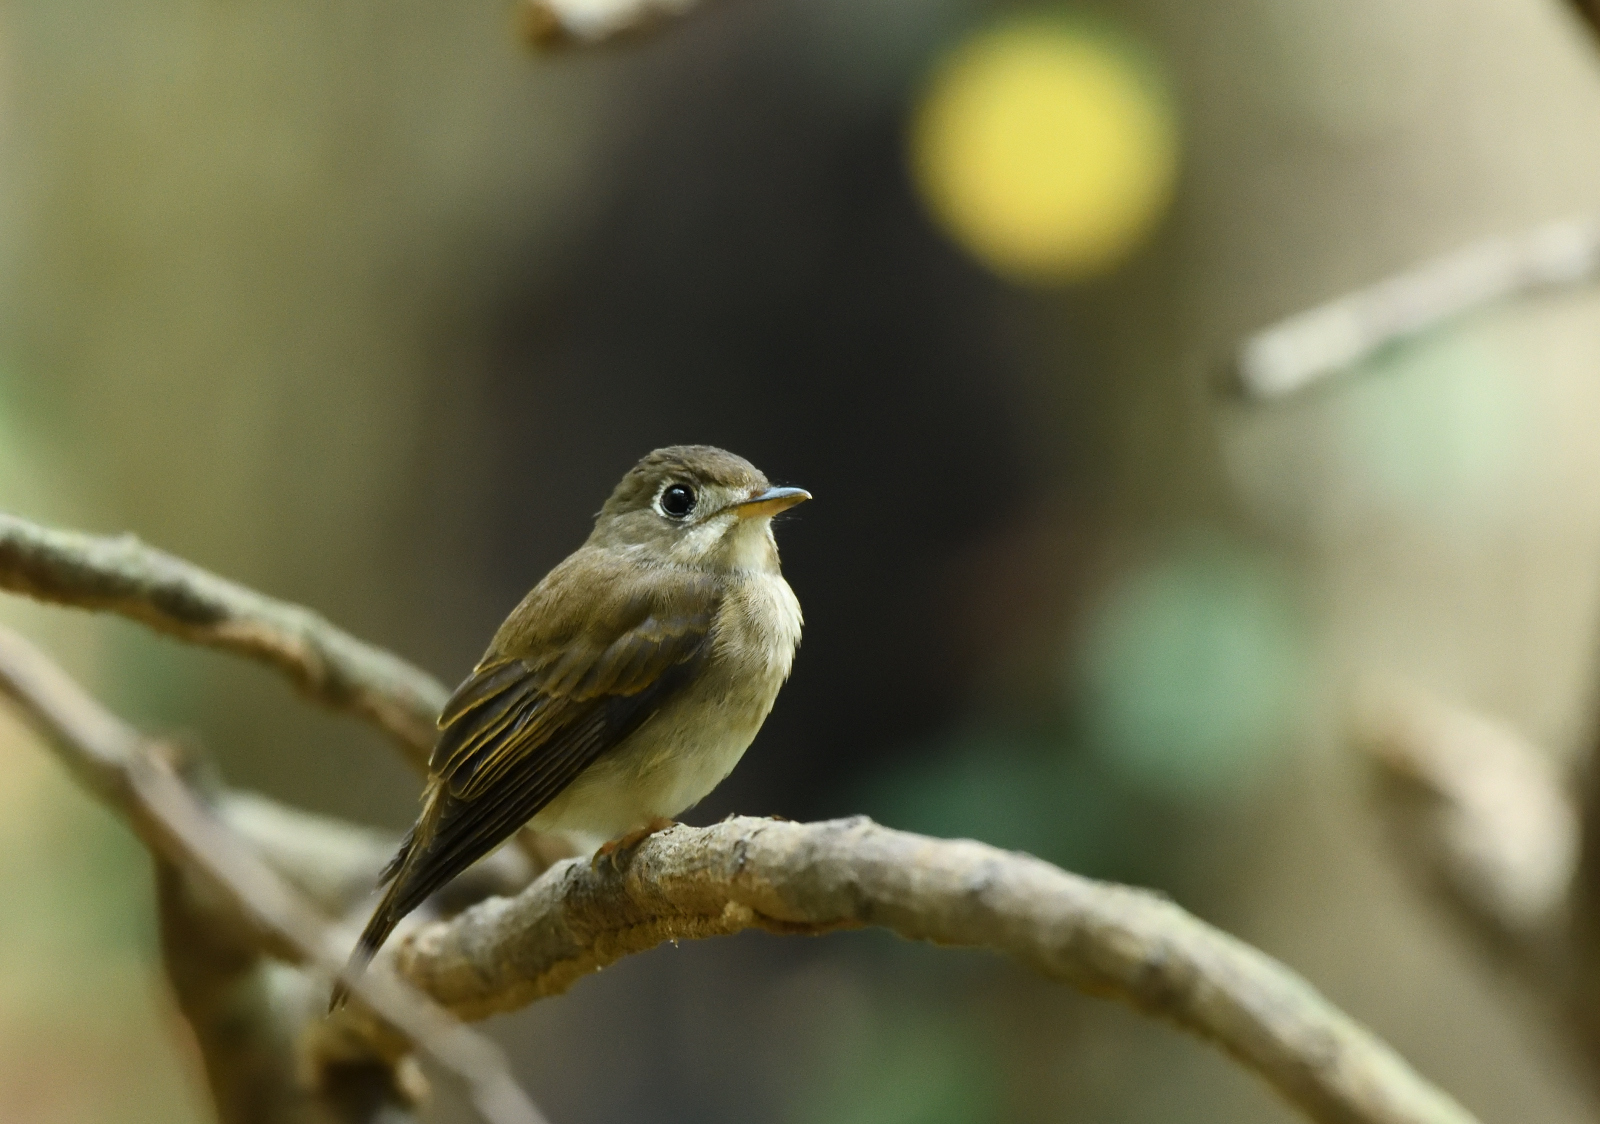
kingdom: Animalia
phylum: Chordata
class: Aves
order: Passeriformes
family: Muscicapidae
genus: Muscicapa
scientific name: Muscicapa muttui
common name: Brown-breasted flycatcher
